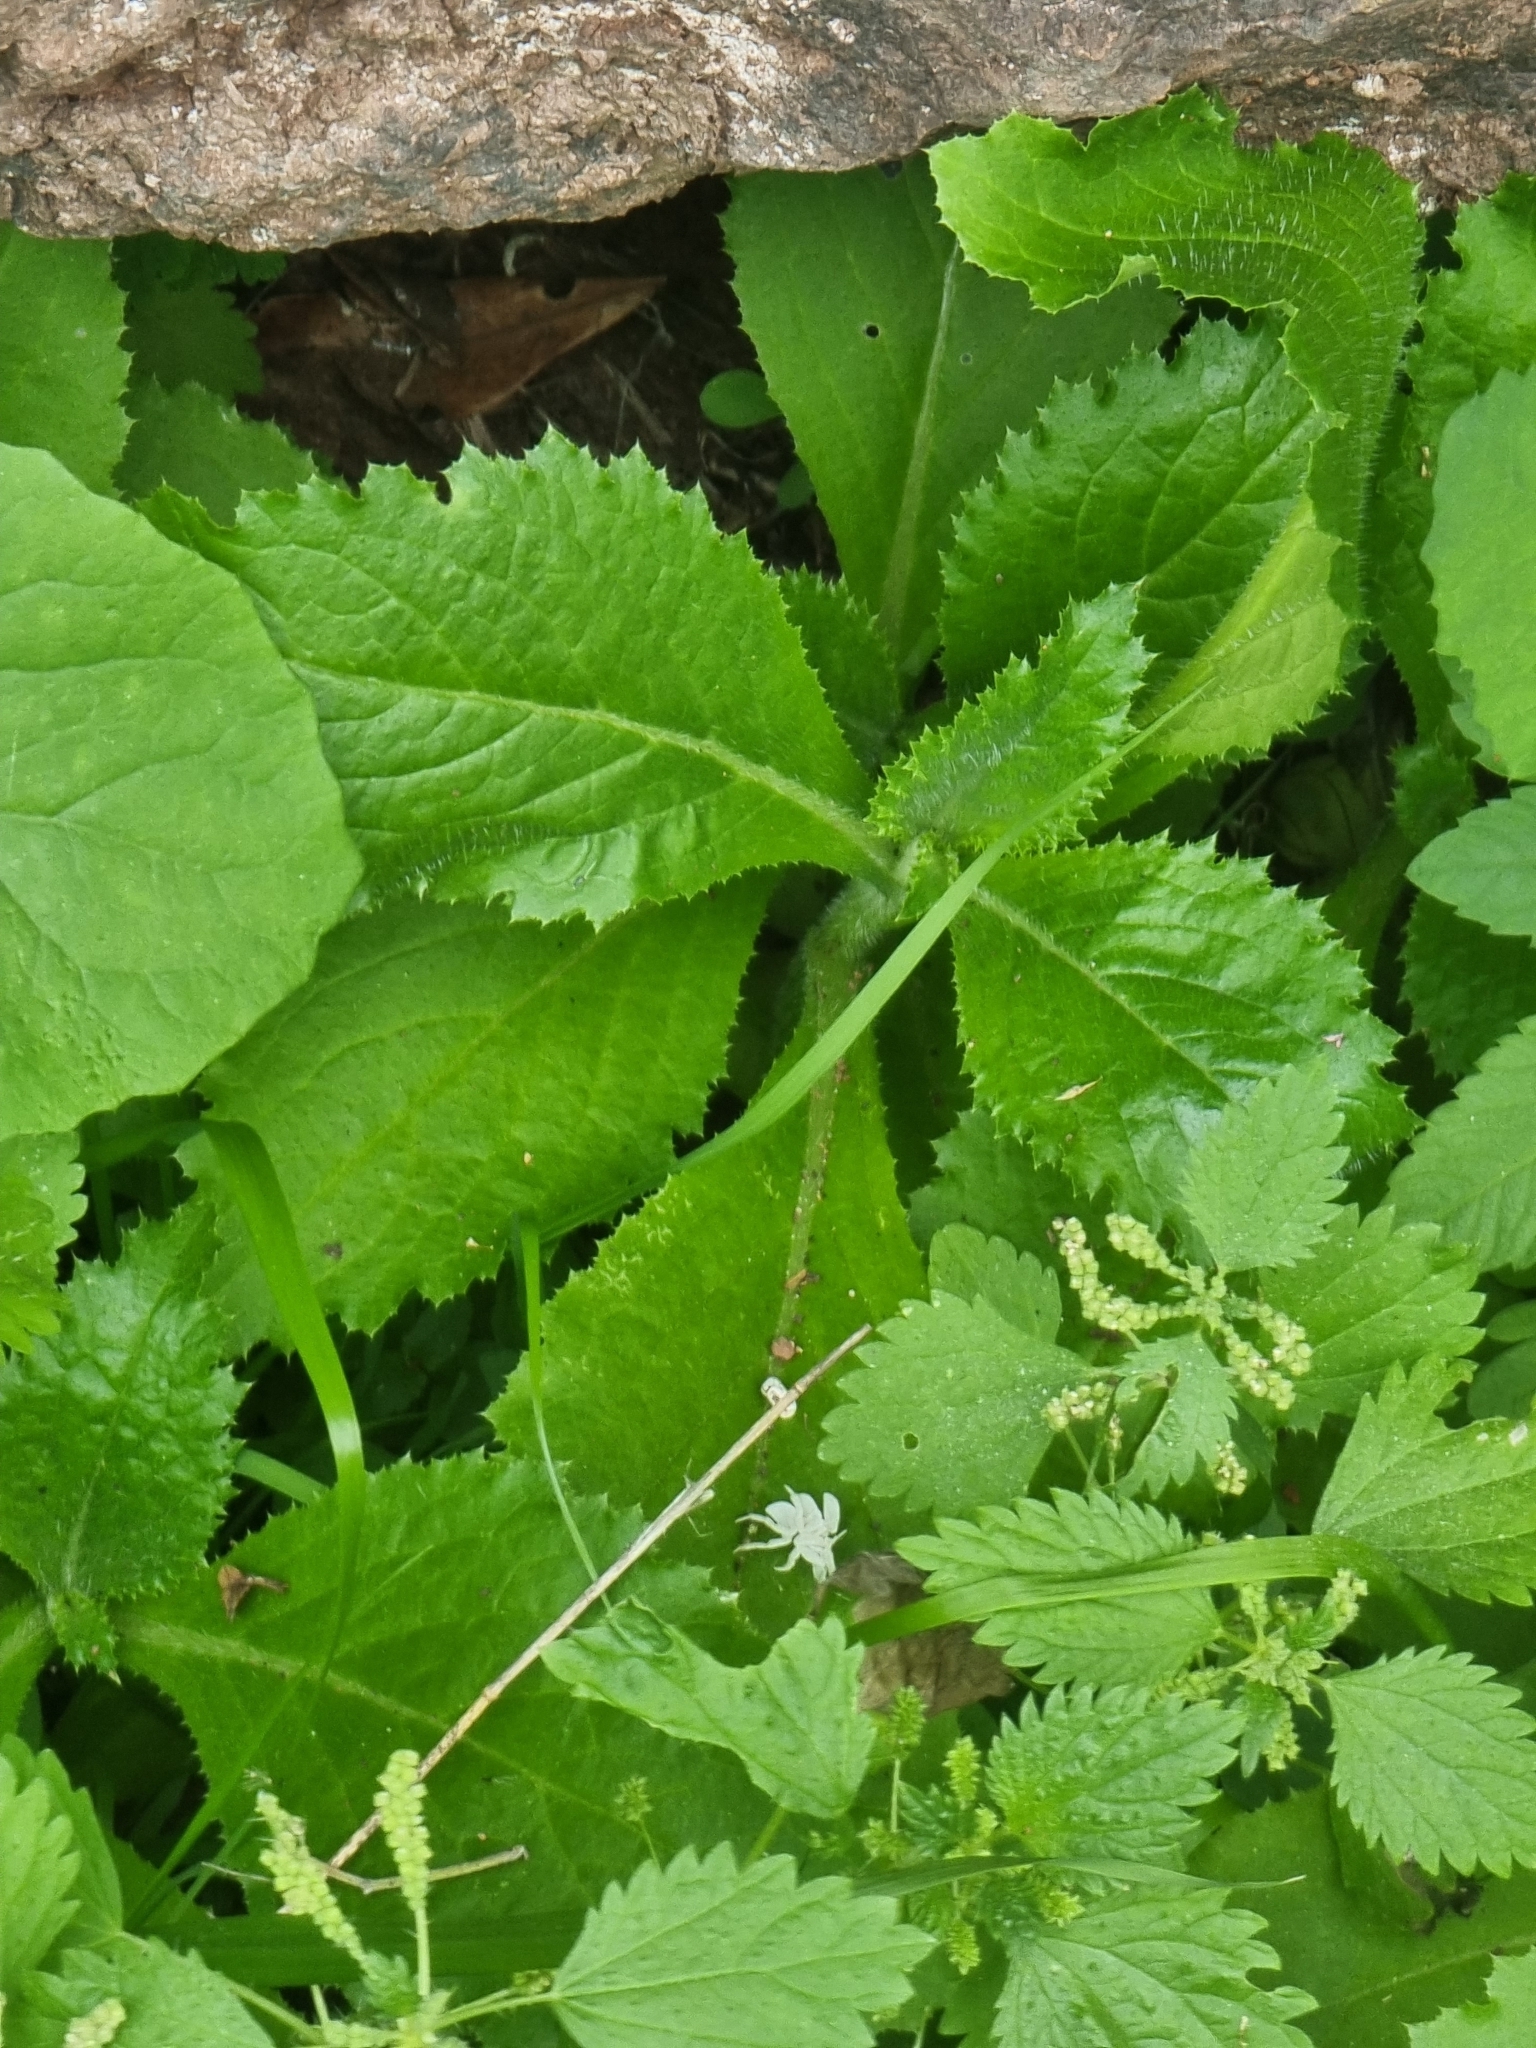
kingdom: Plantae
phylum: Tracheophyta
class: Magnoliopsida
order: Asterales
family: Asteraceae
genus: Carduus
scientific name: Carduus squarrosus
